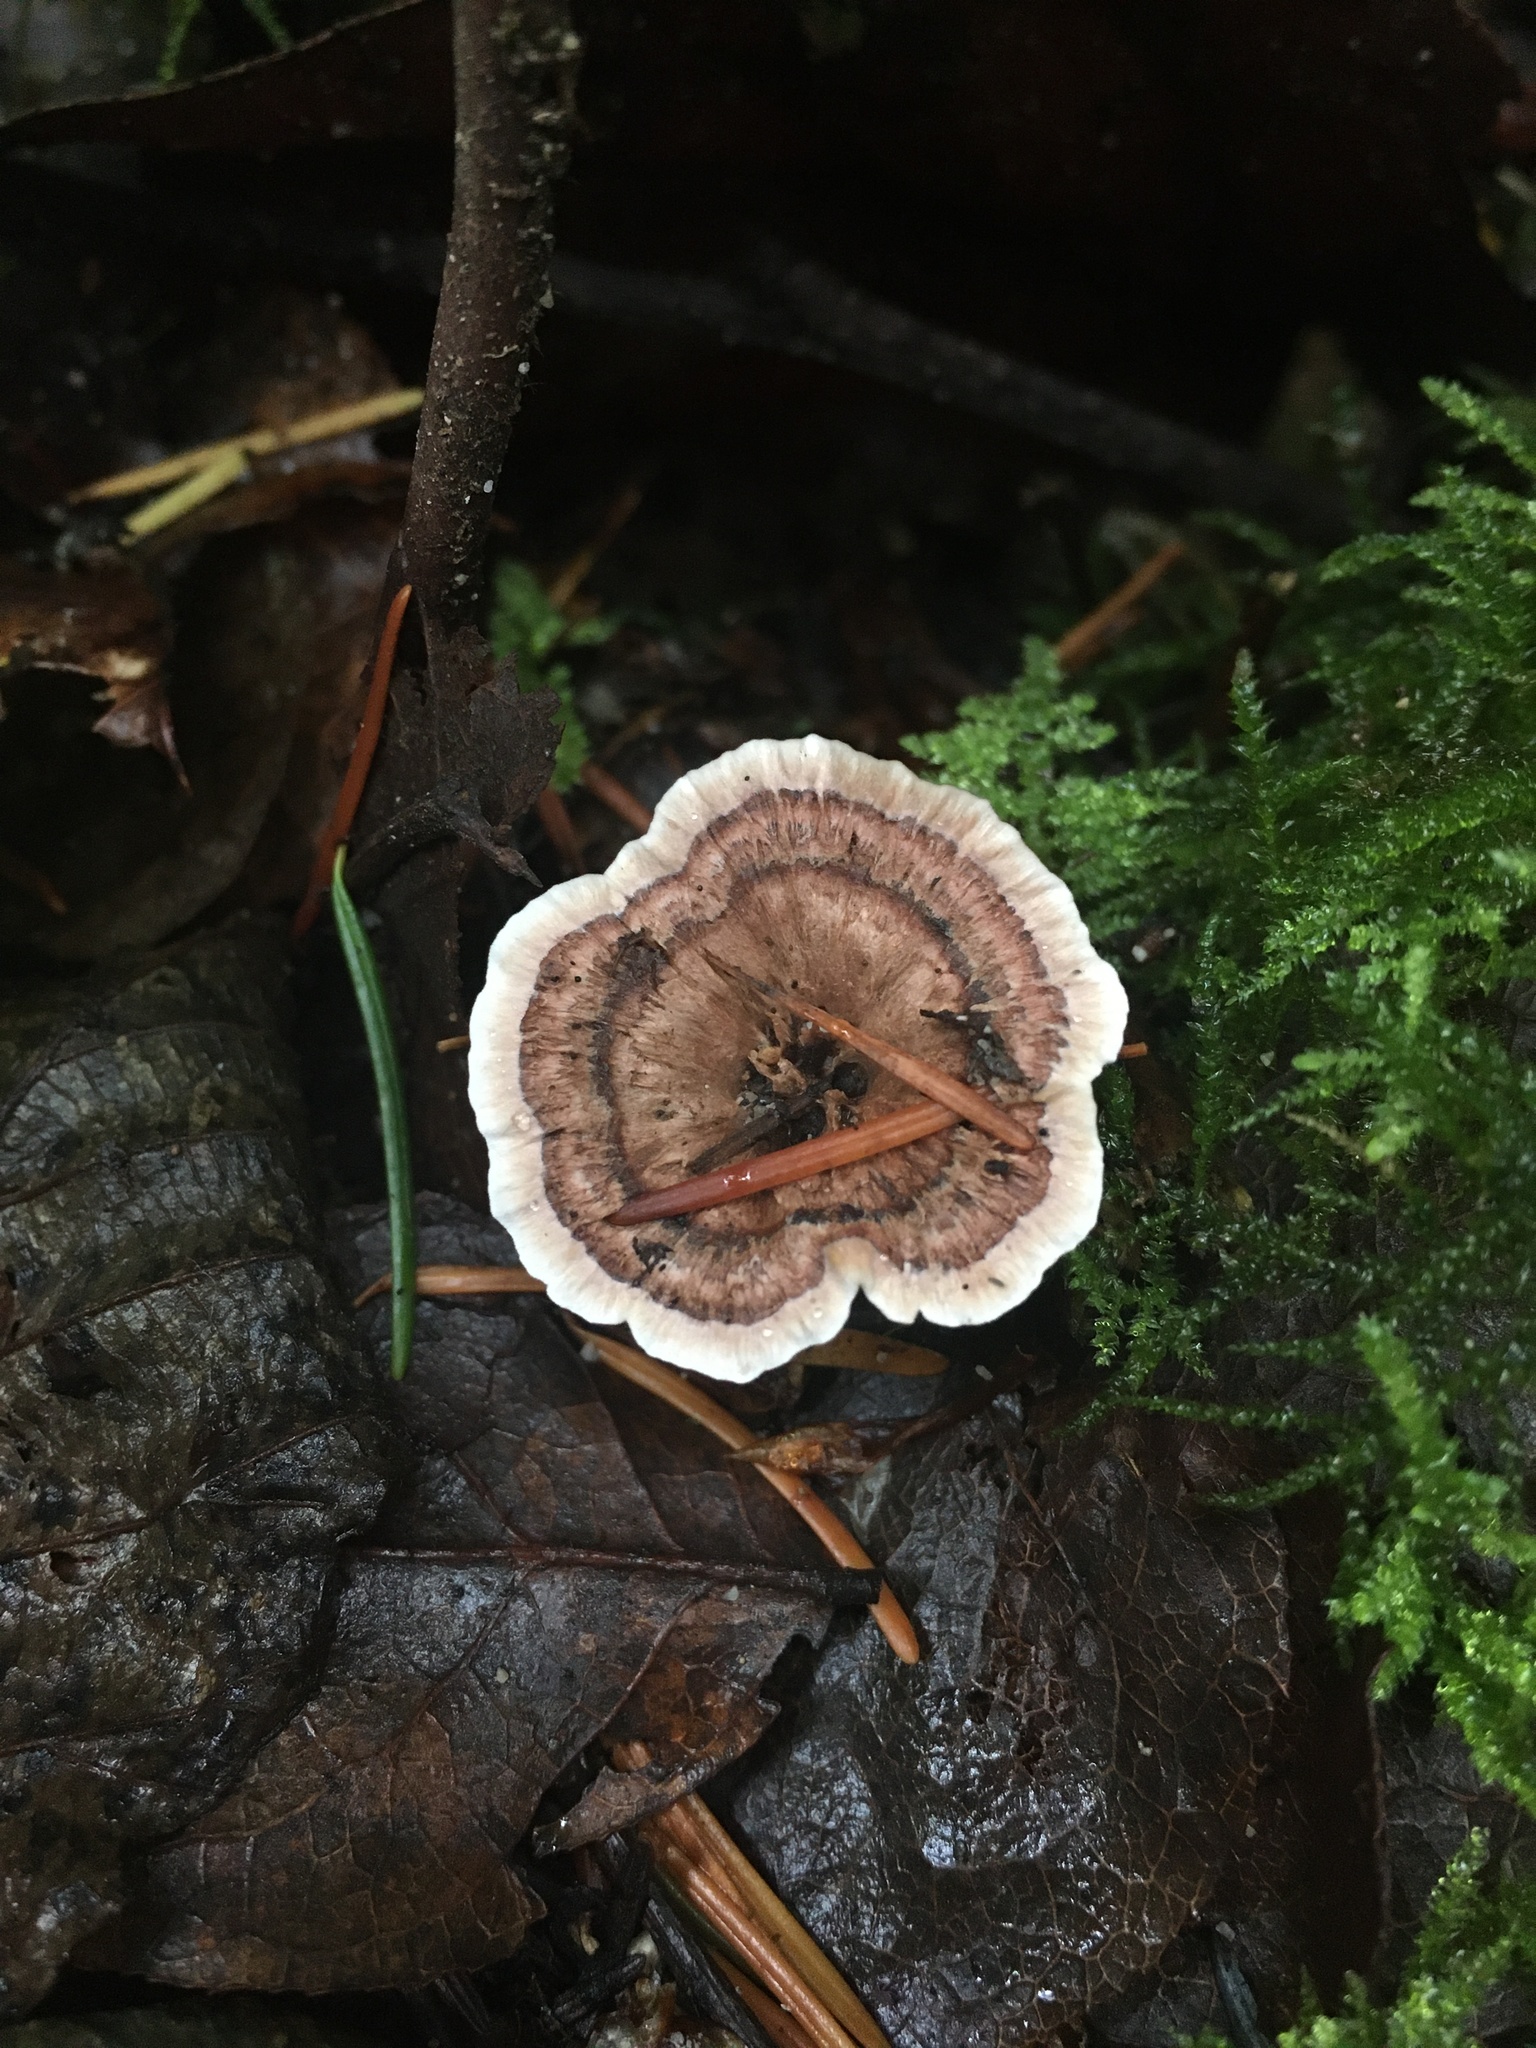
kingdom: Fungi
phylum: Basidiomycota
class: Agaricomycetes
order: Hymenochaetales
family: Hymenochaetaceae
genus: Coltricia
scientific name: Coltricia perennis
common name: Tiger's eye
